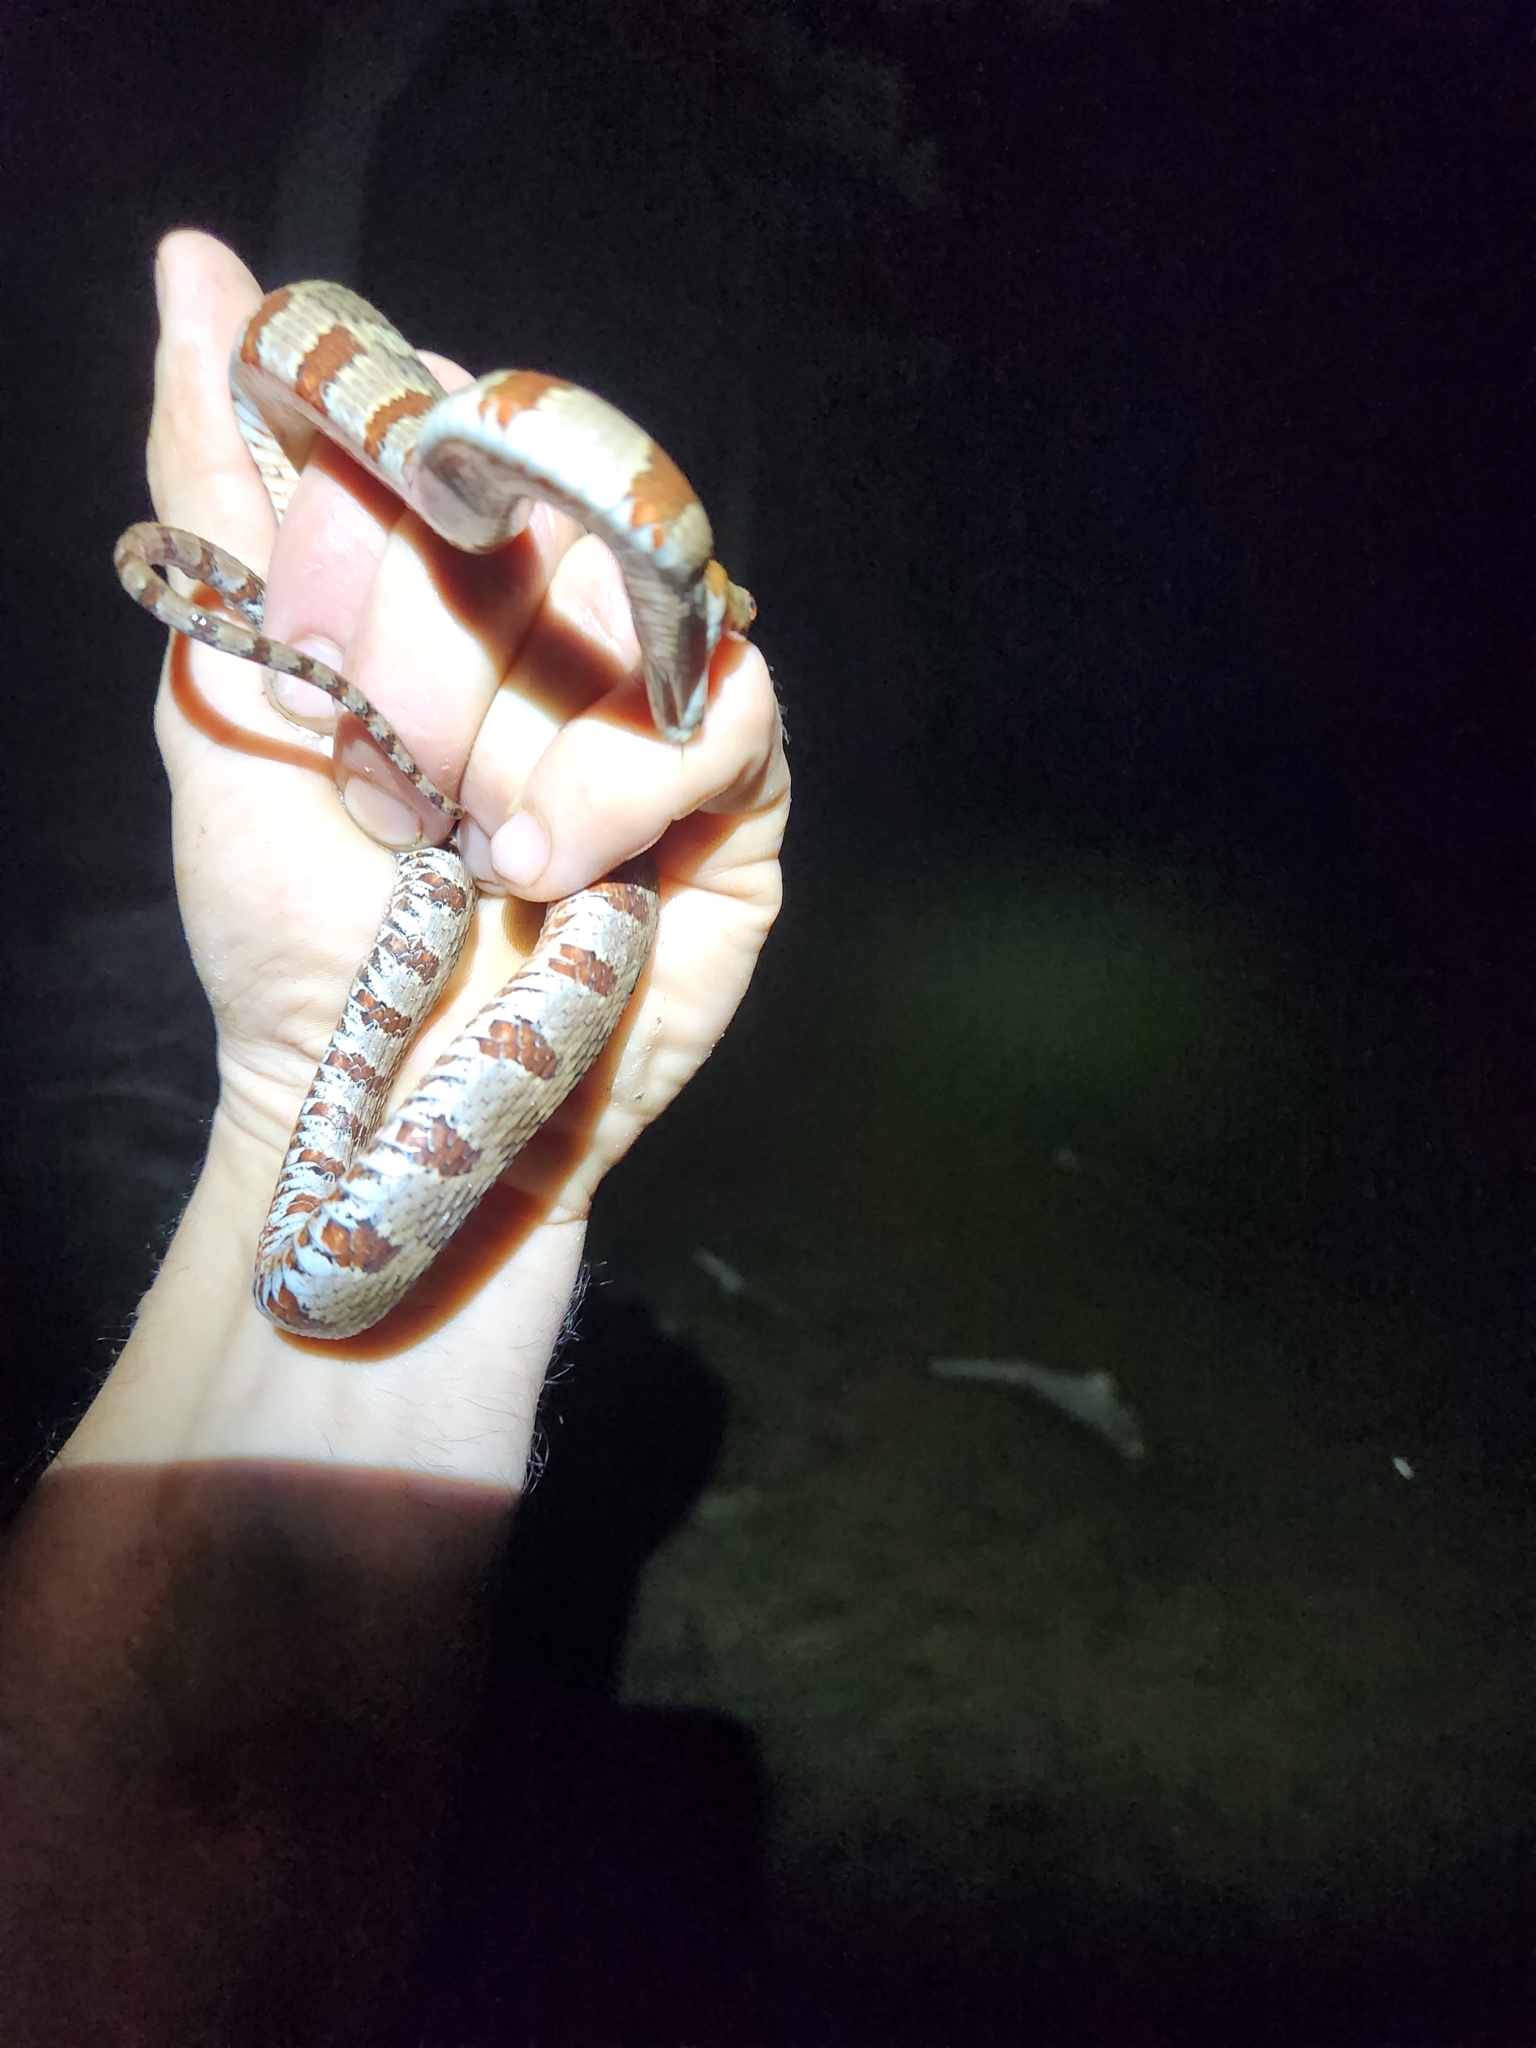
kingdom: Animalia
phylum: Chordata
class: Squamata
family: Colubridae
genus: Nerodia
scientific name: Nerodia sipedon
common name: Northern water snake
